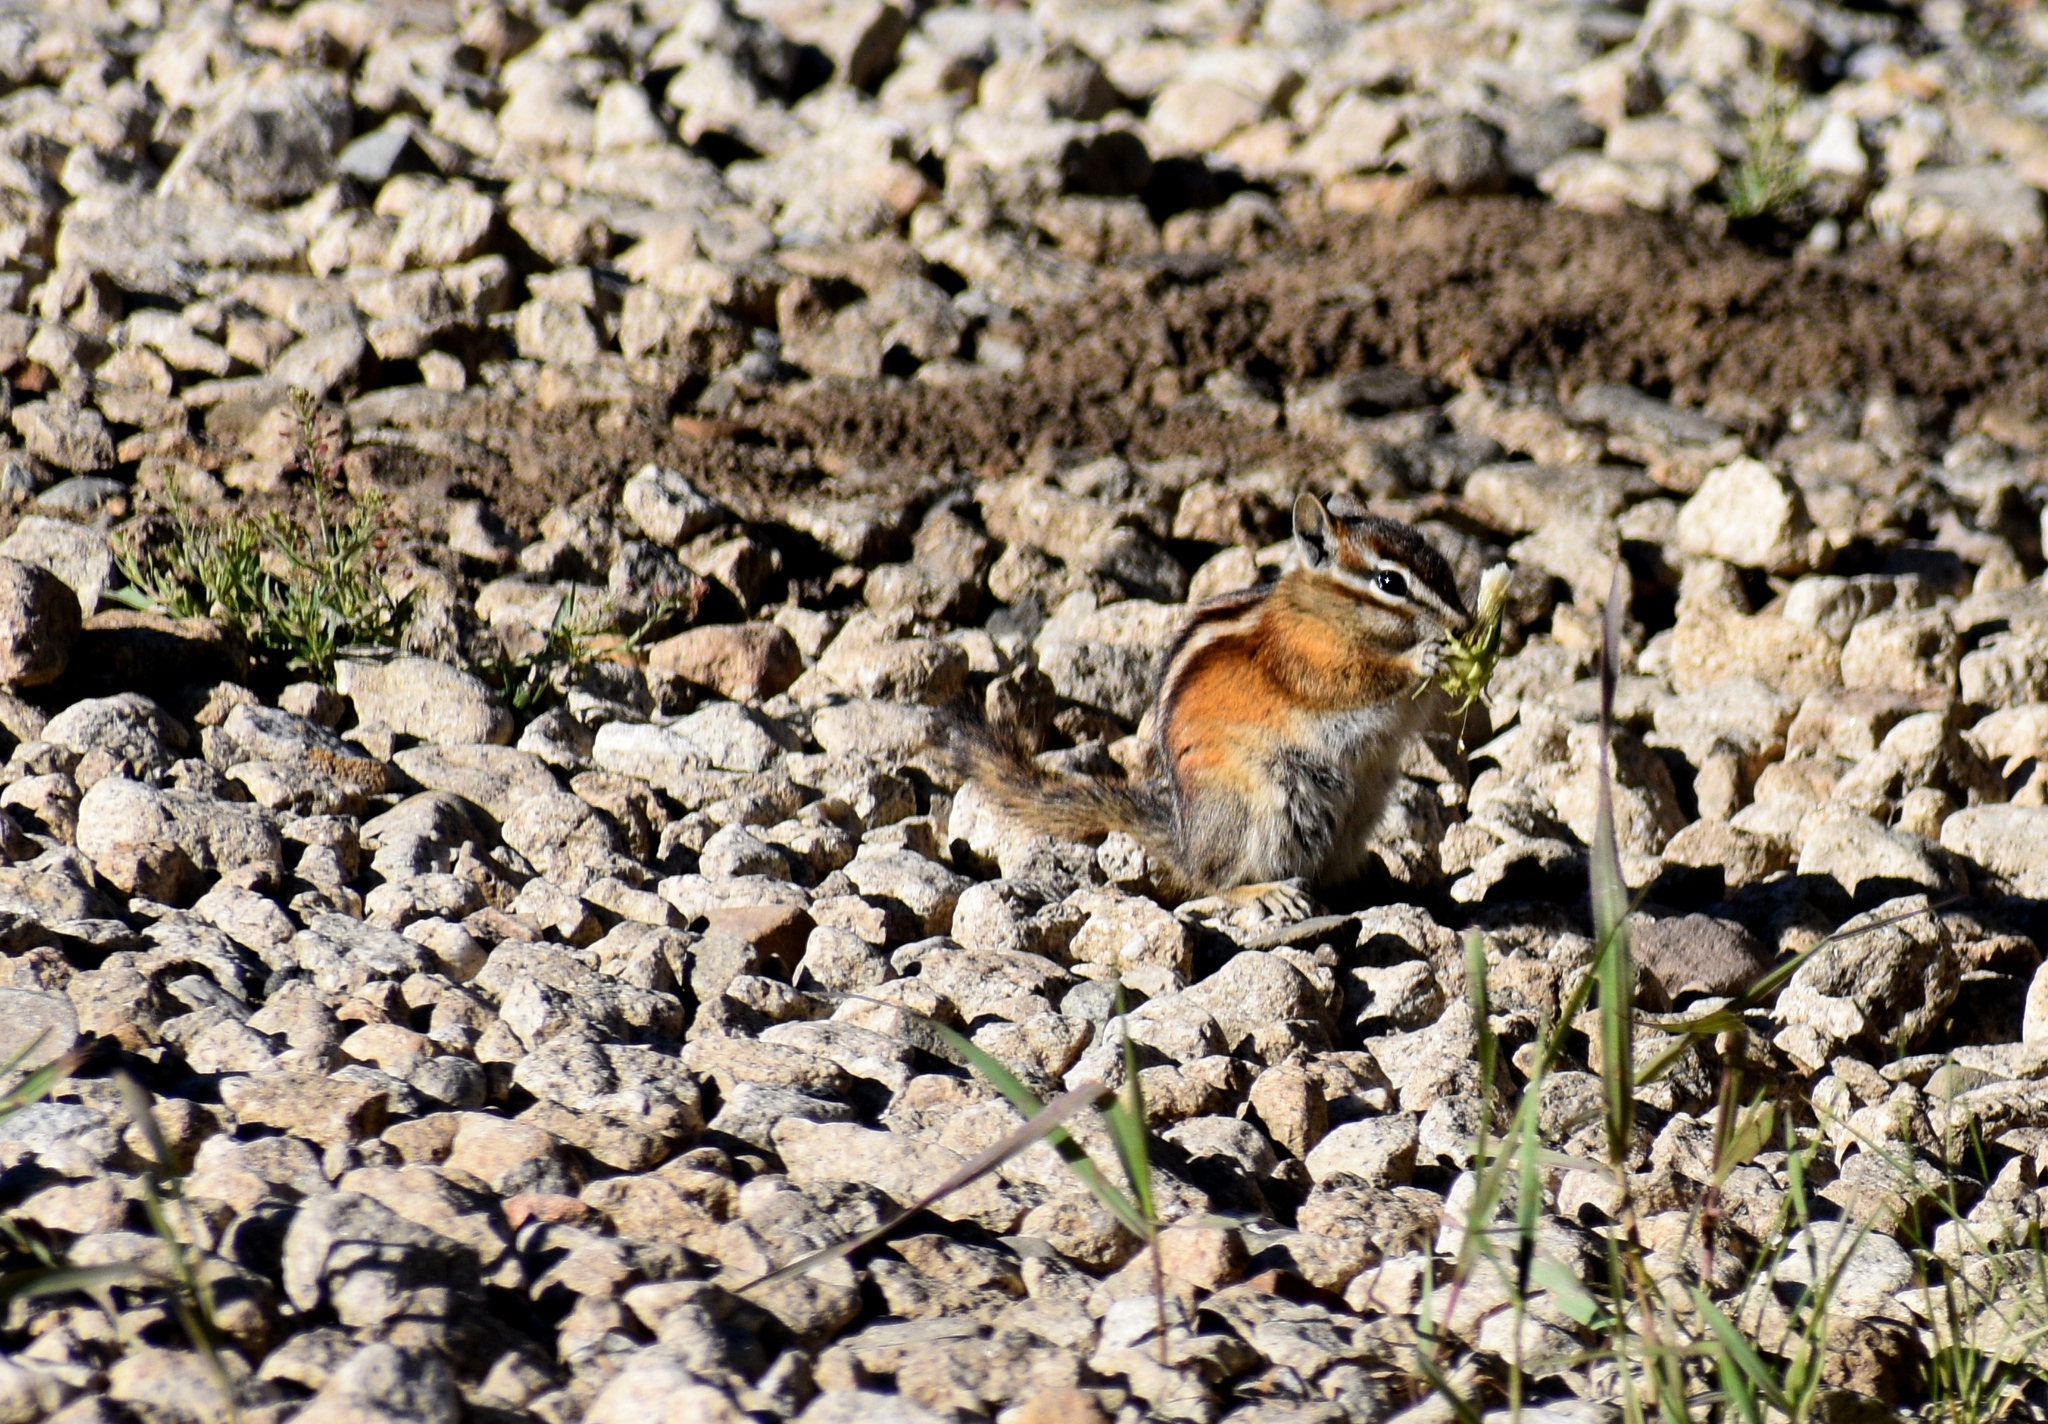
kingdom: Animalia
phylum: Chordata
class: Mammalia
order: Rodentia
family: Sciuridae
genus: Tamias
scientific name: Tamias minimus
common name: Least chipmunk
